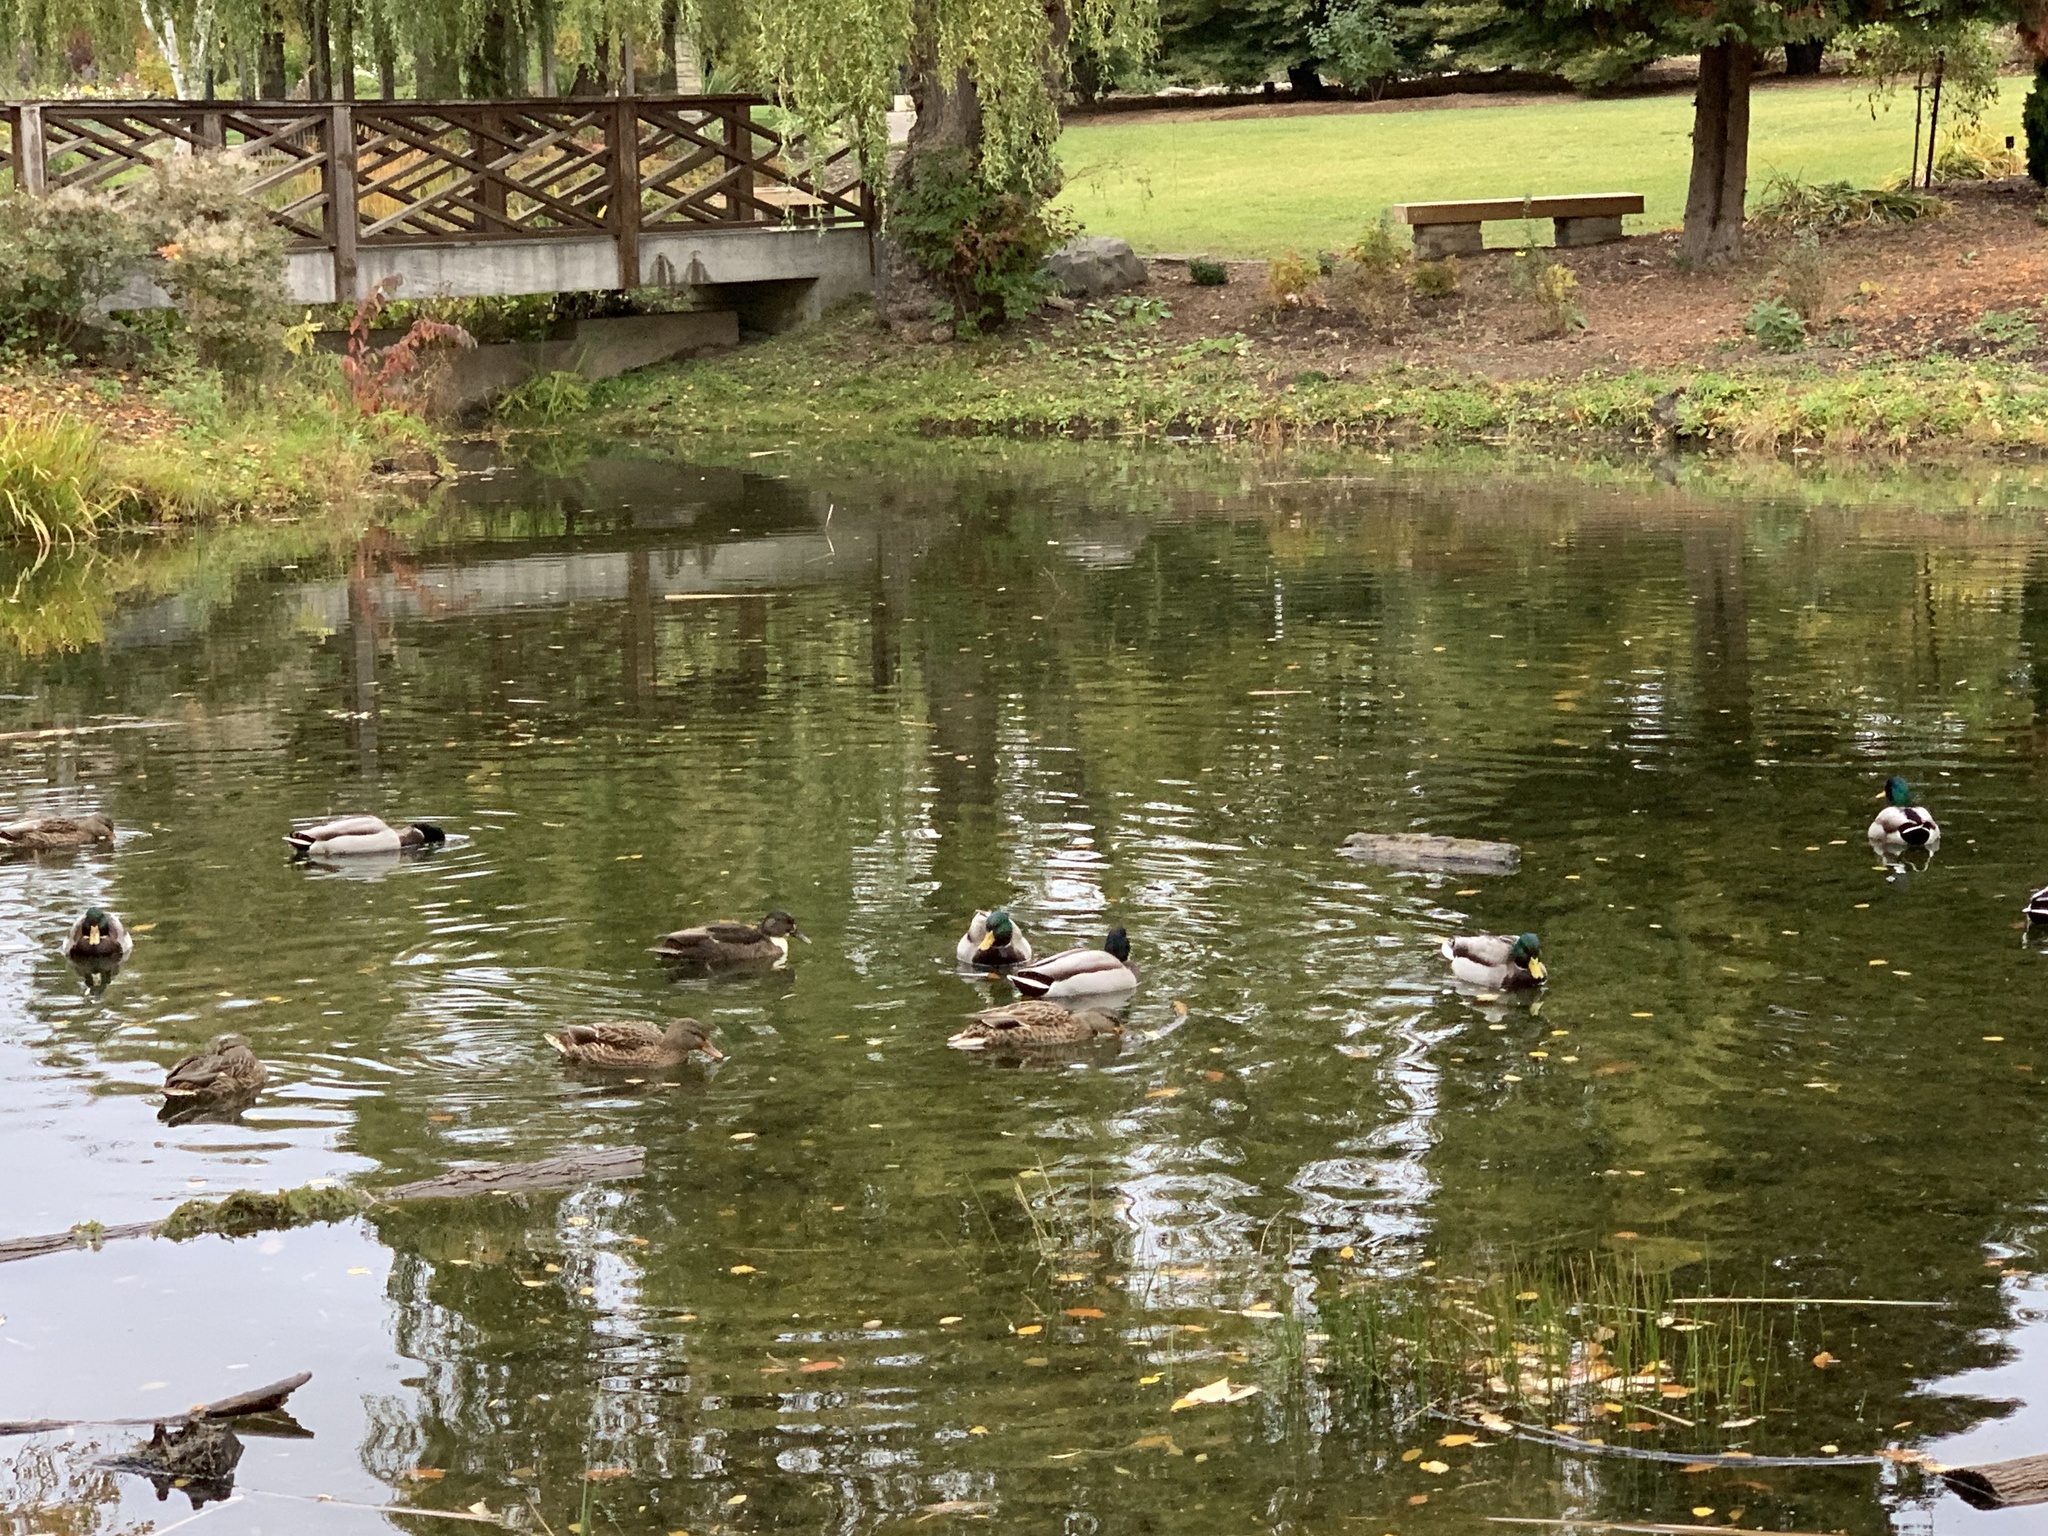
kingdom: Animalia
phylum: Chordata
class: Aves
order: Anseriformes
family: Anatidae
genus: Anas
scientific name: Anas platyrhynchos
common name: Mallard
